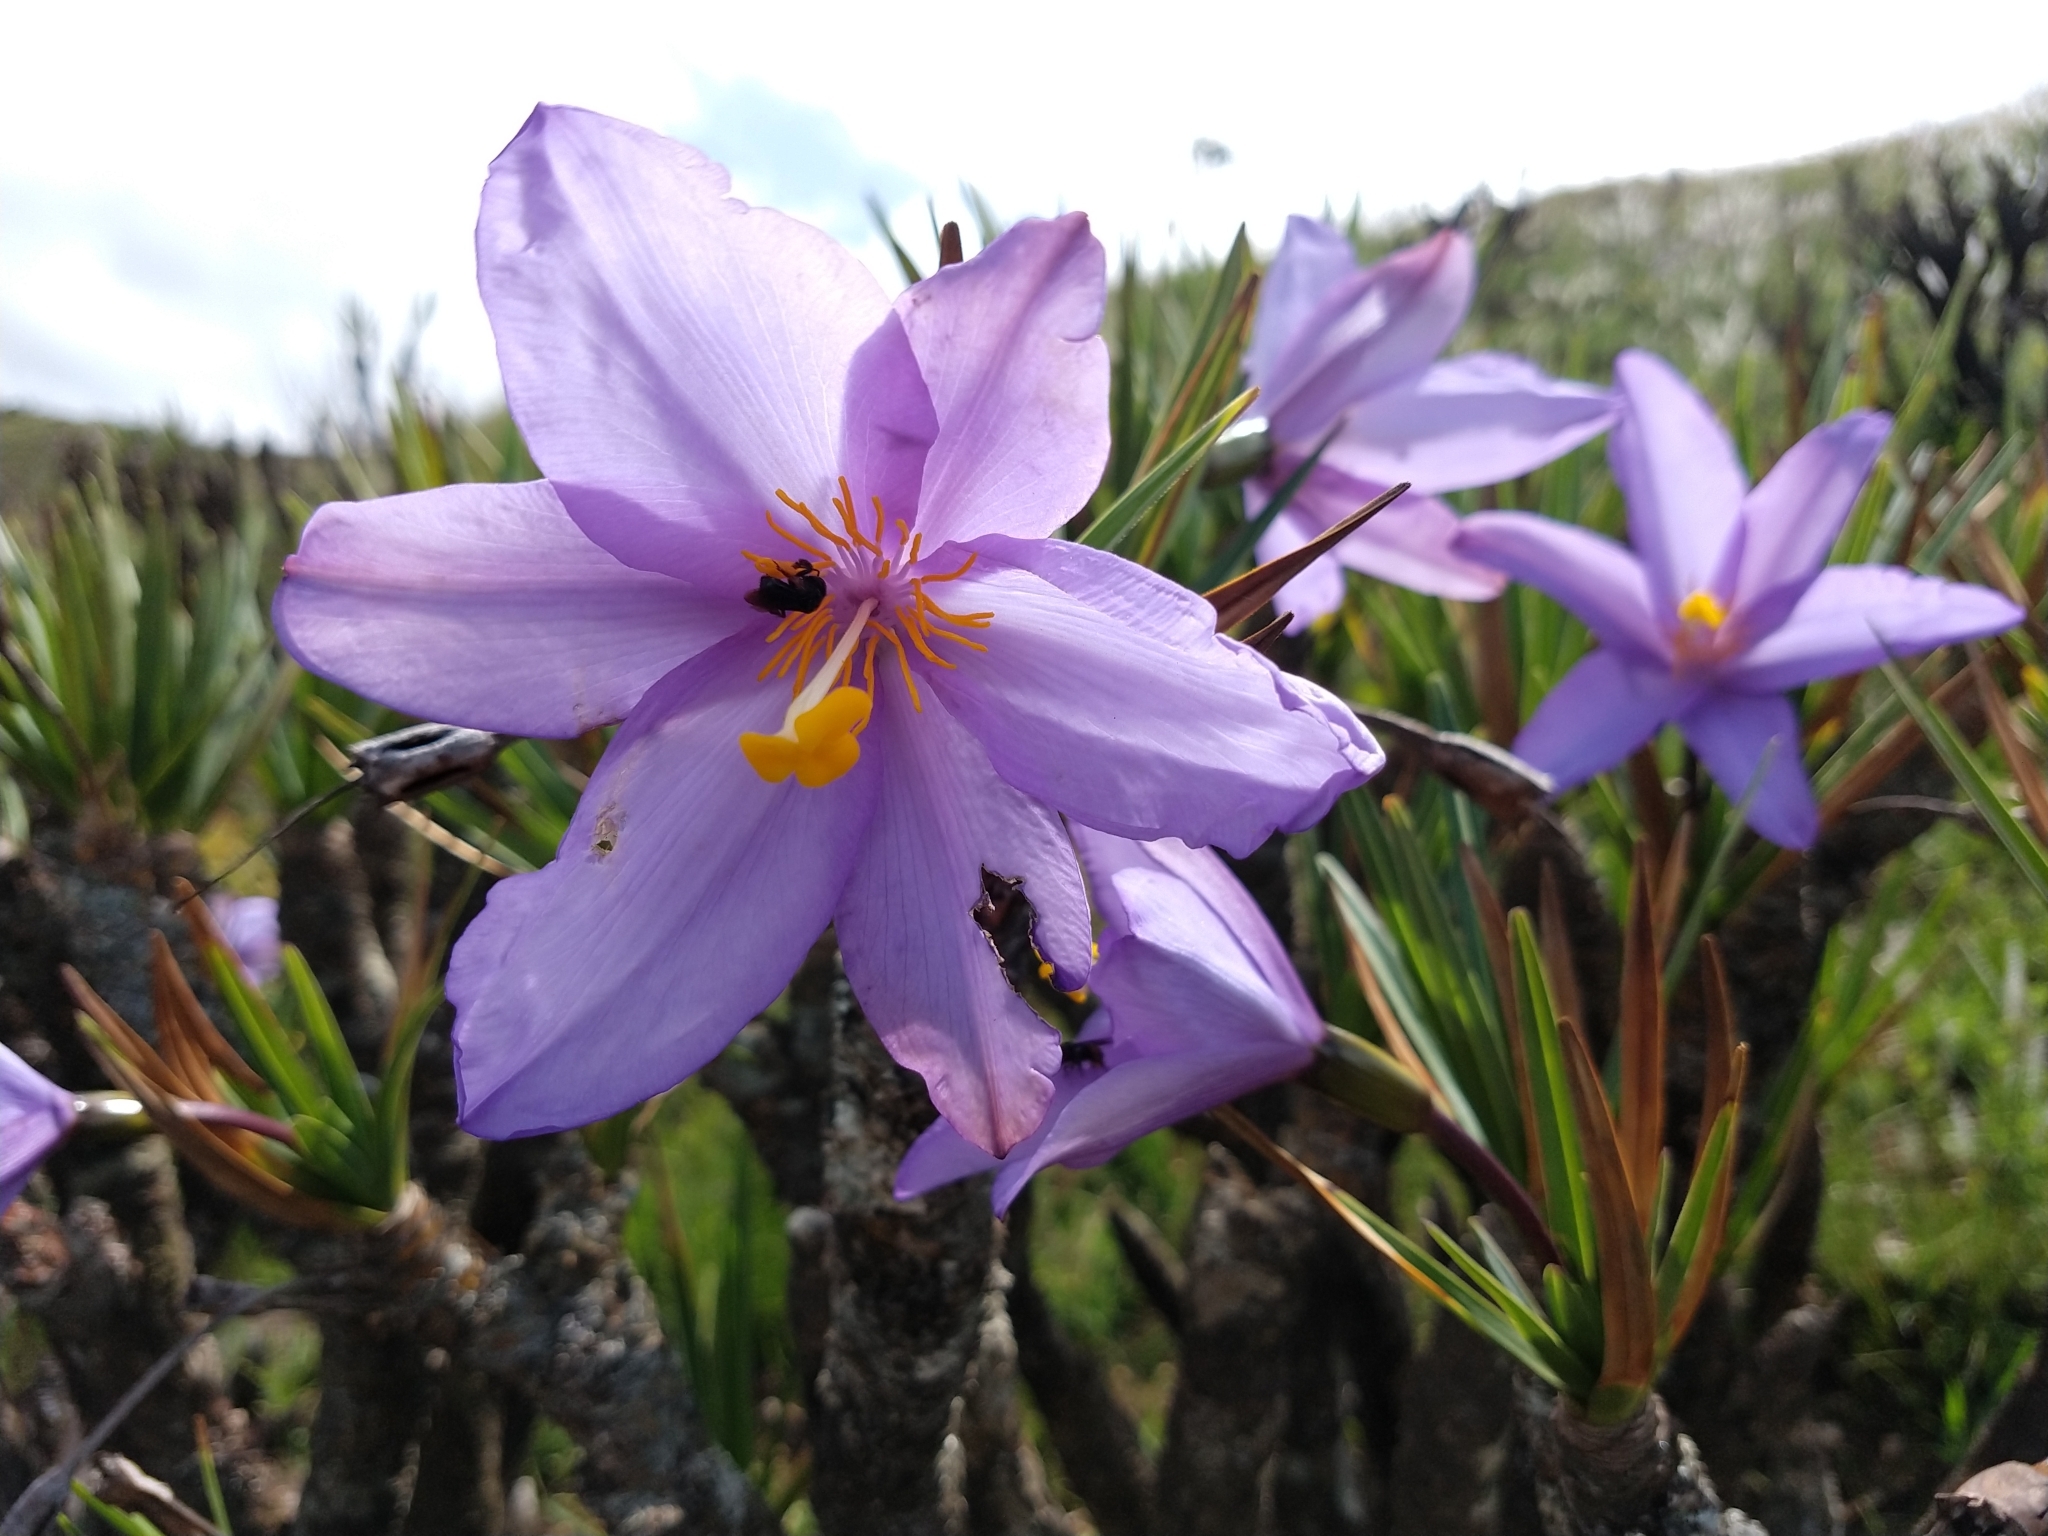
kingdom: Plantae
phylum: Tracheophyta
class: Liliopsida
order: Pandanales
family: Velloziaceae
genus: Vellozia
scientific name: Vellozia compacta
